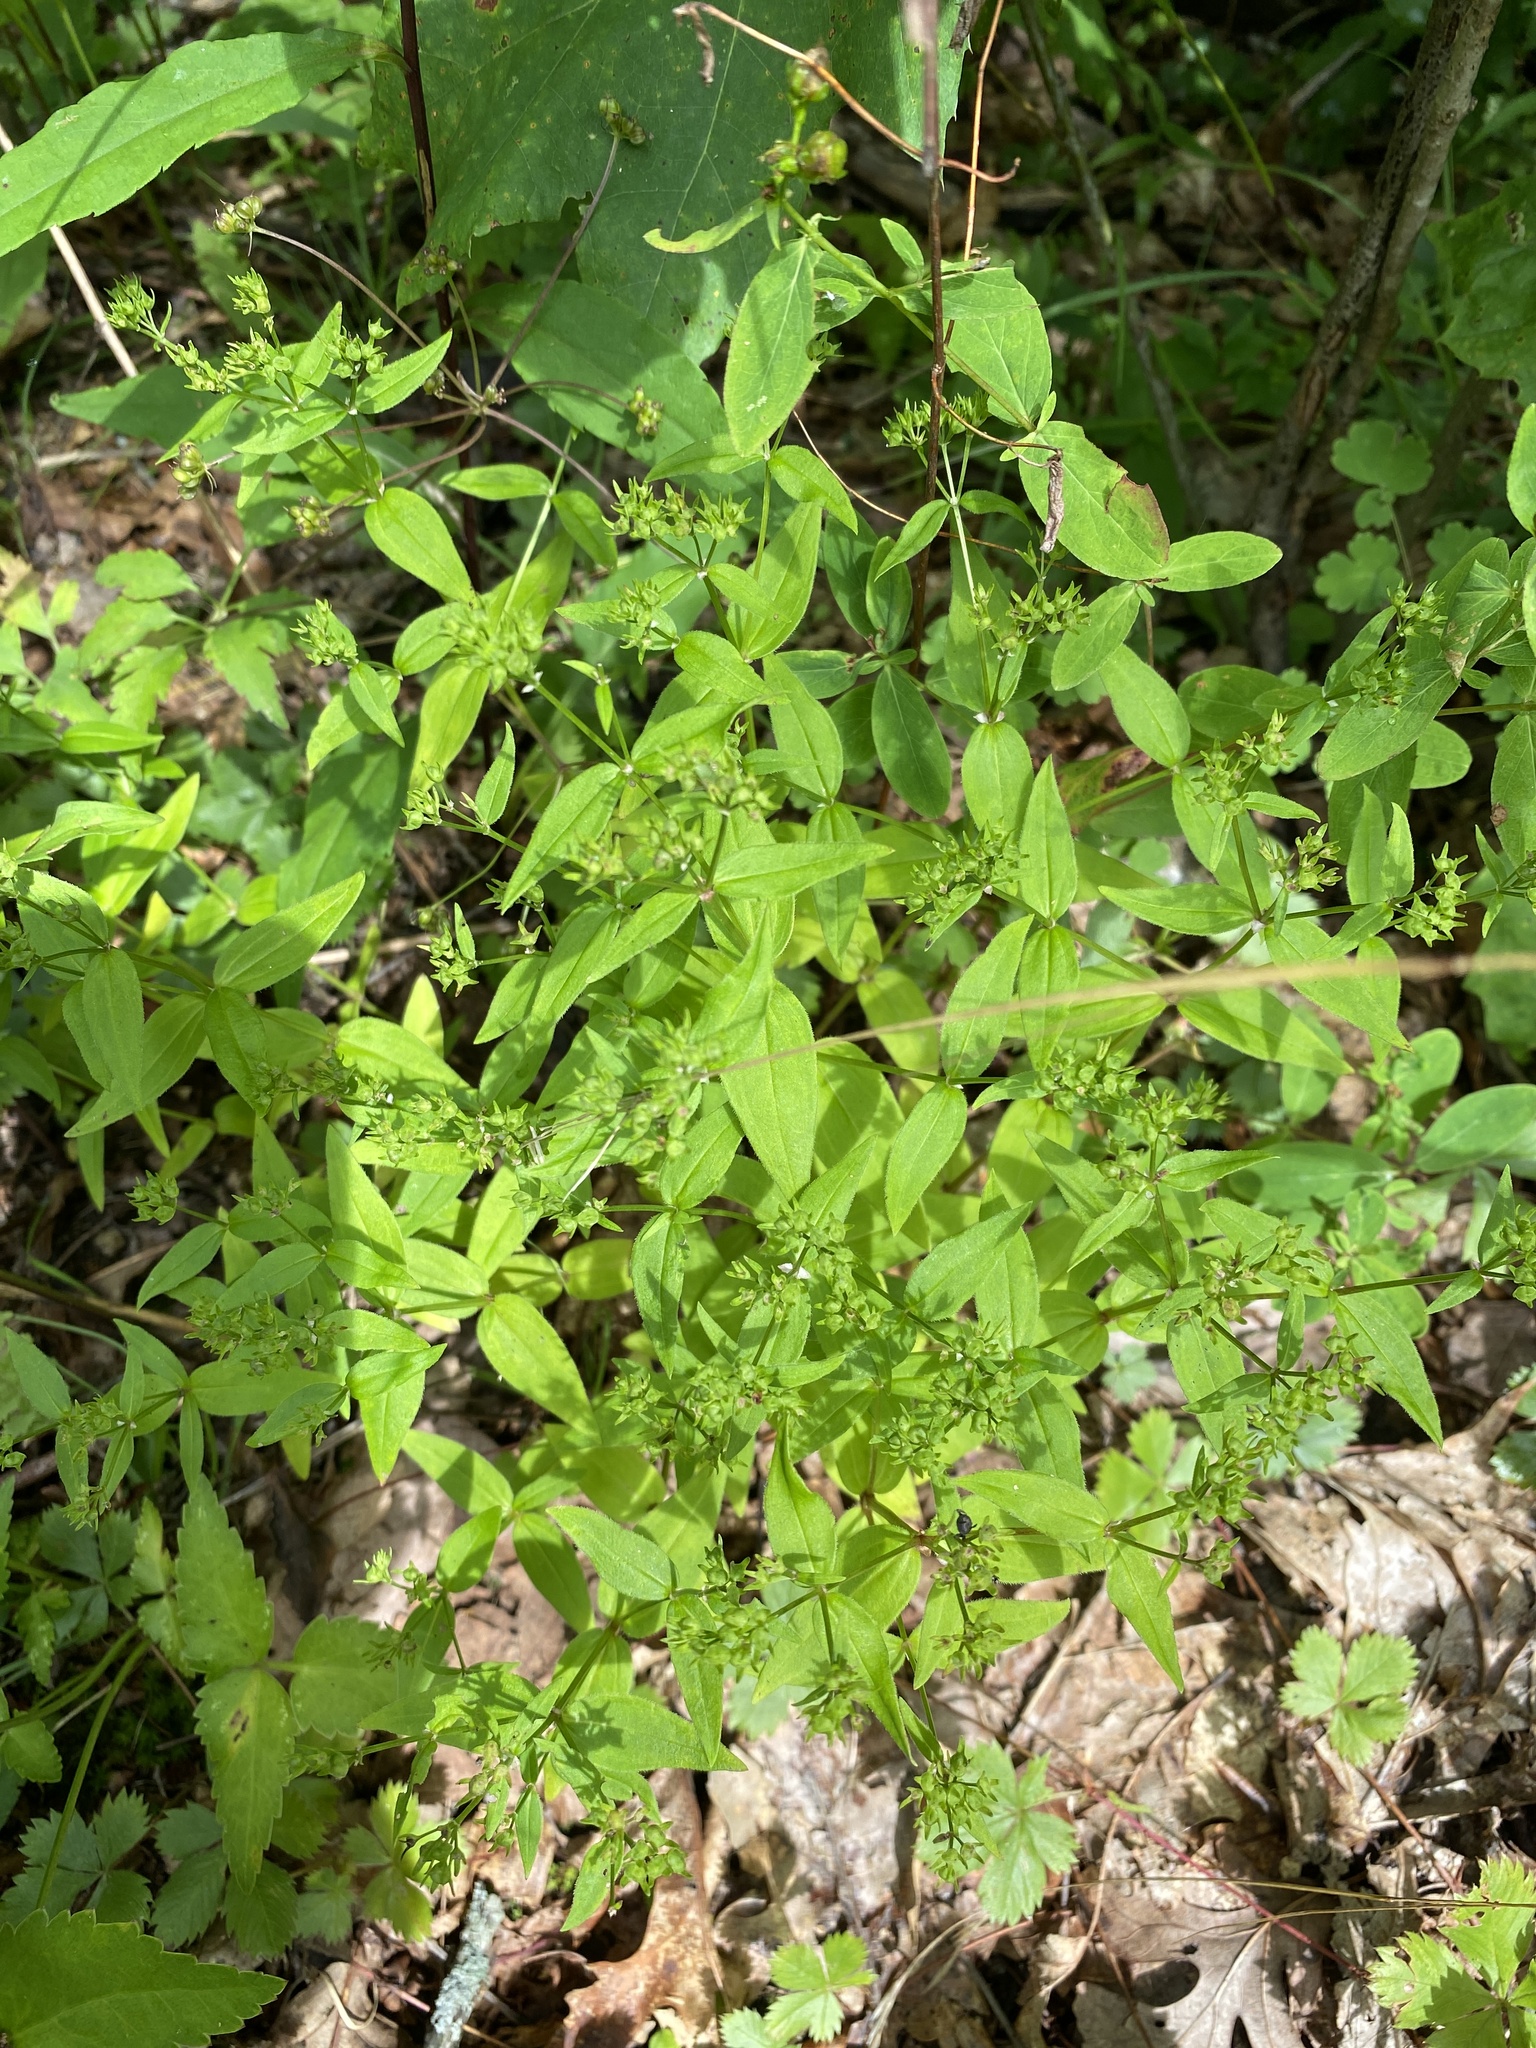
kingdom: Plantae
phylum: Tracheophyta
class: Magnoliopsida
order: Gentianales
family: Rubiaceae
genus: Houstonia
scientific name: Houstonia purpurea
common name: Summer bluet
